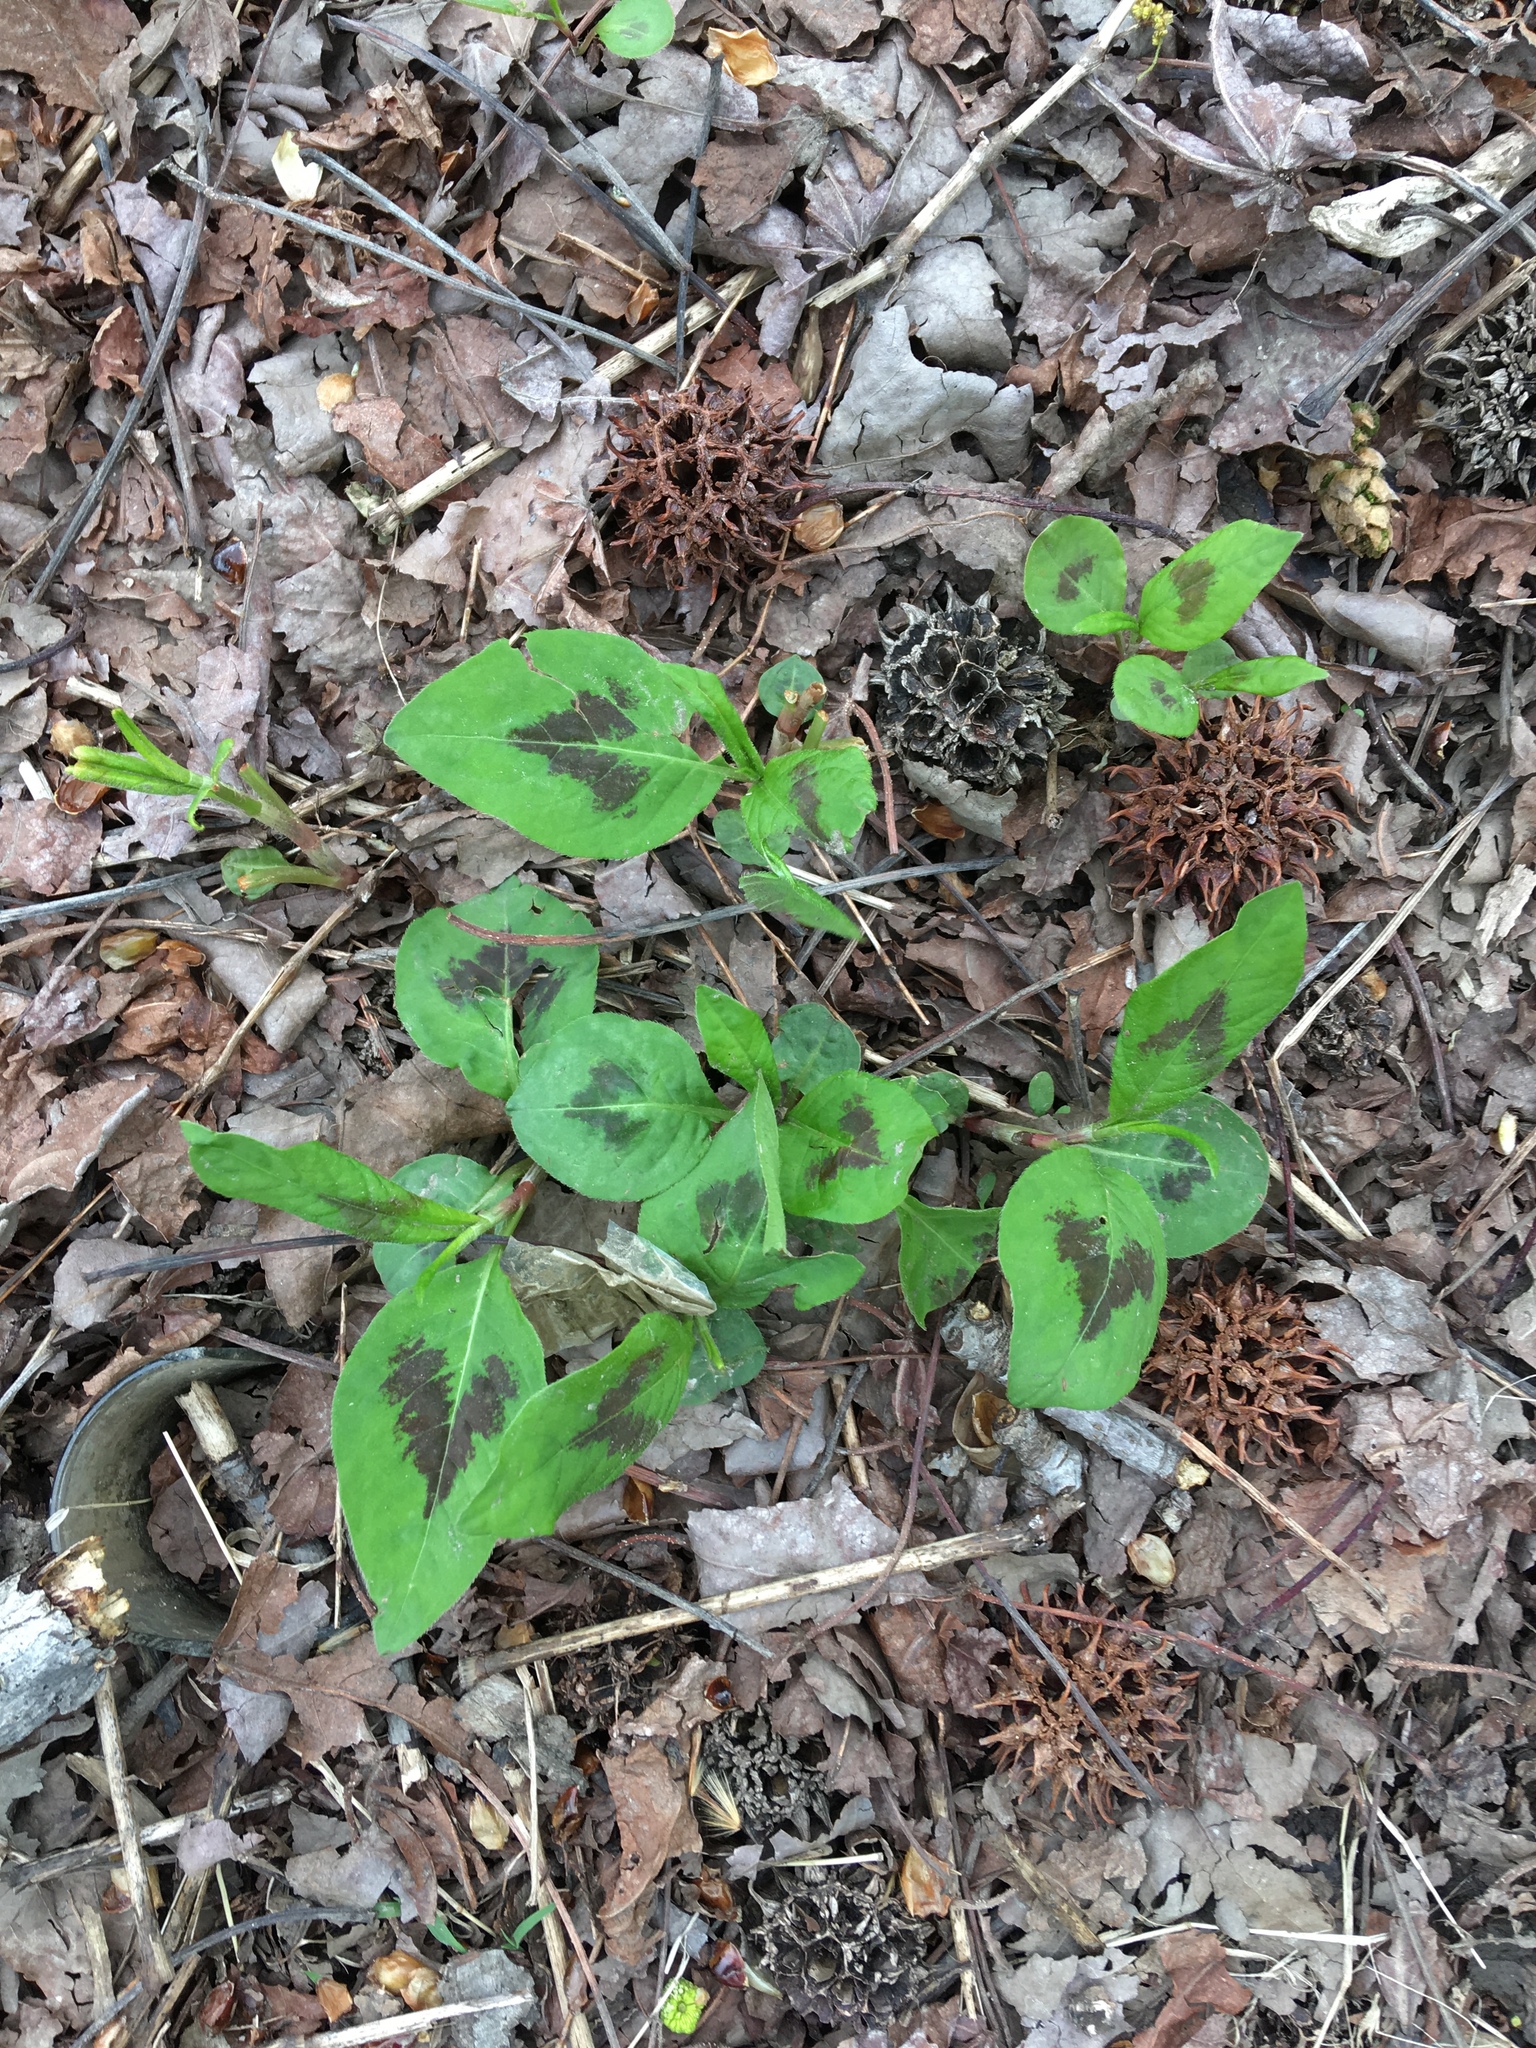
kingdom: Plantae
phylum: Tracheophyta
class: Magnoliopsida
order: Caryophyllales
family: Polygonaceae
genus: Persicaria
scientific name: Persicaria virginiana
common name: Jumpseed
